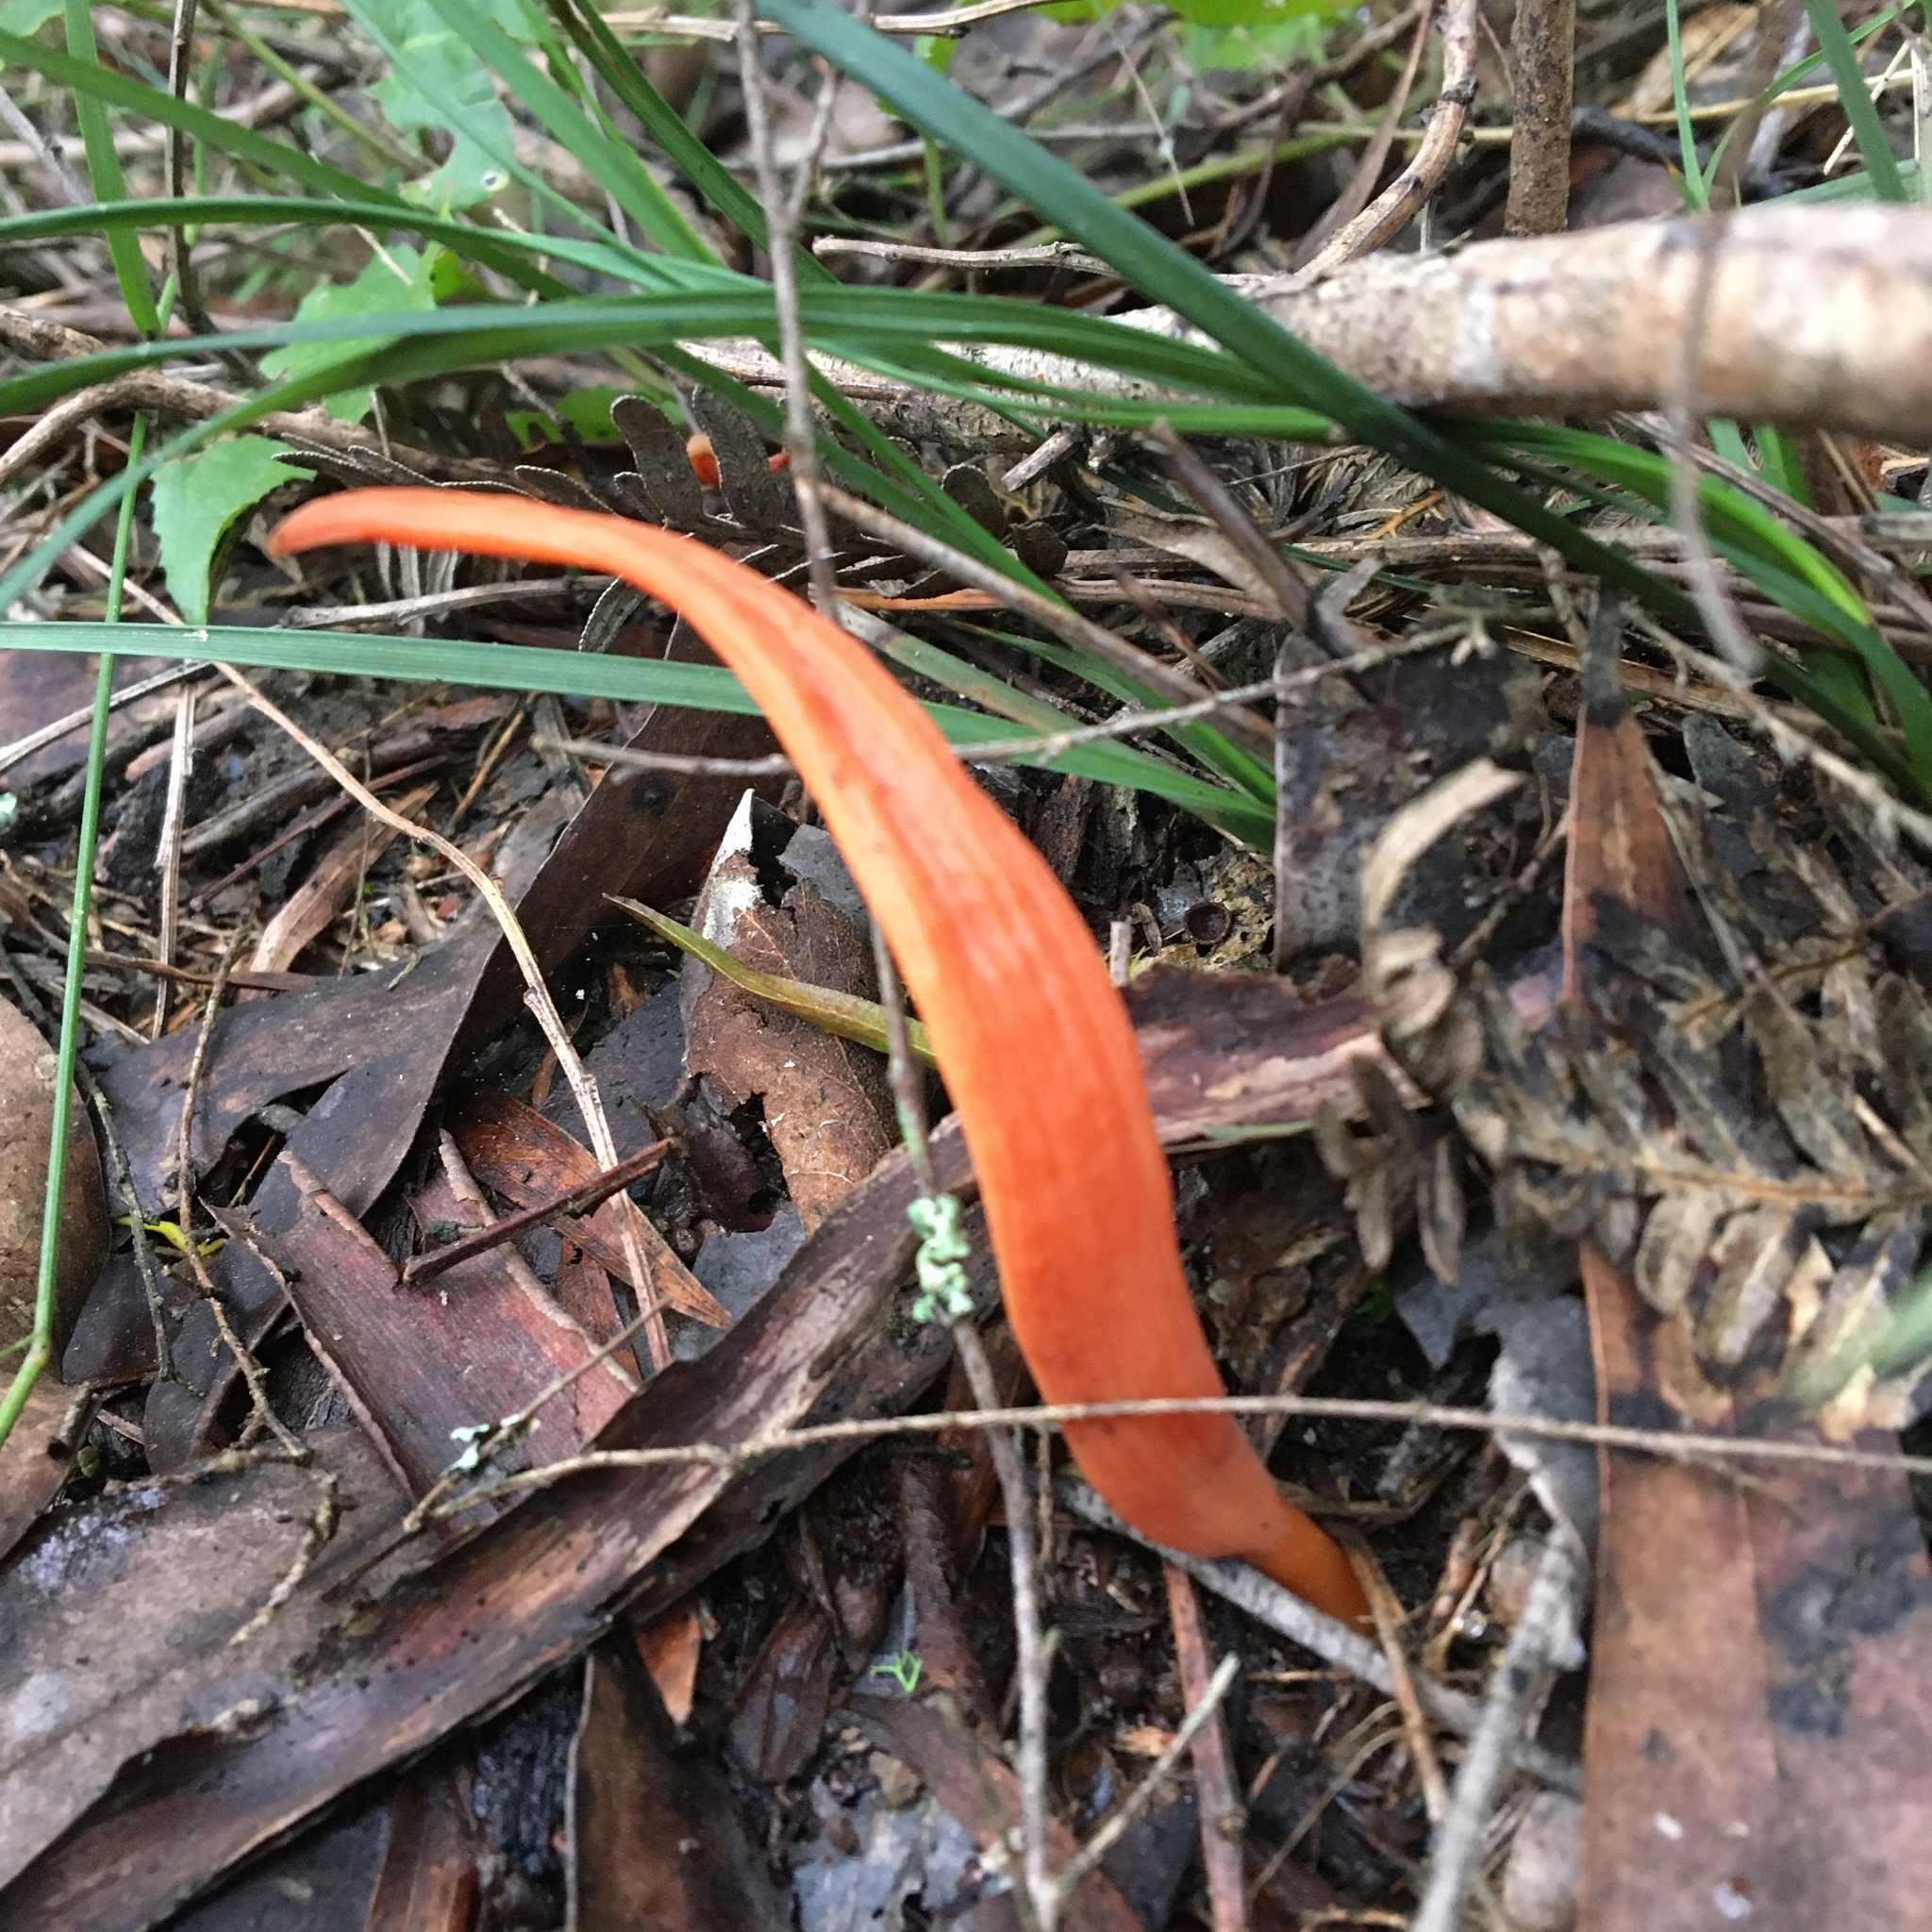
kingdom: Fungi
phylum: Basidiomycota
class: Agaricomycetes
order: Agaricales
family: Clavariaceae
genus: Clavulinopsis
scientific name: Clavulinopsis sulcata
